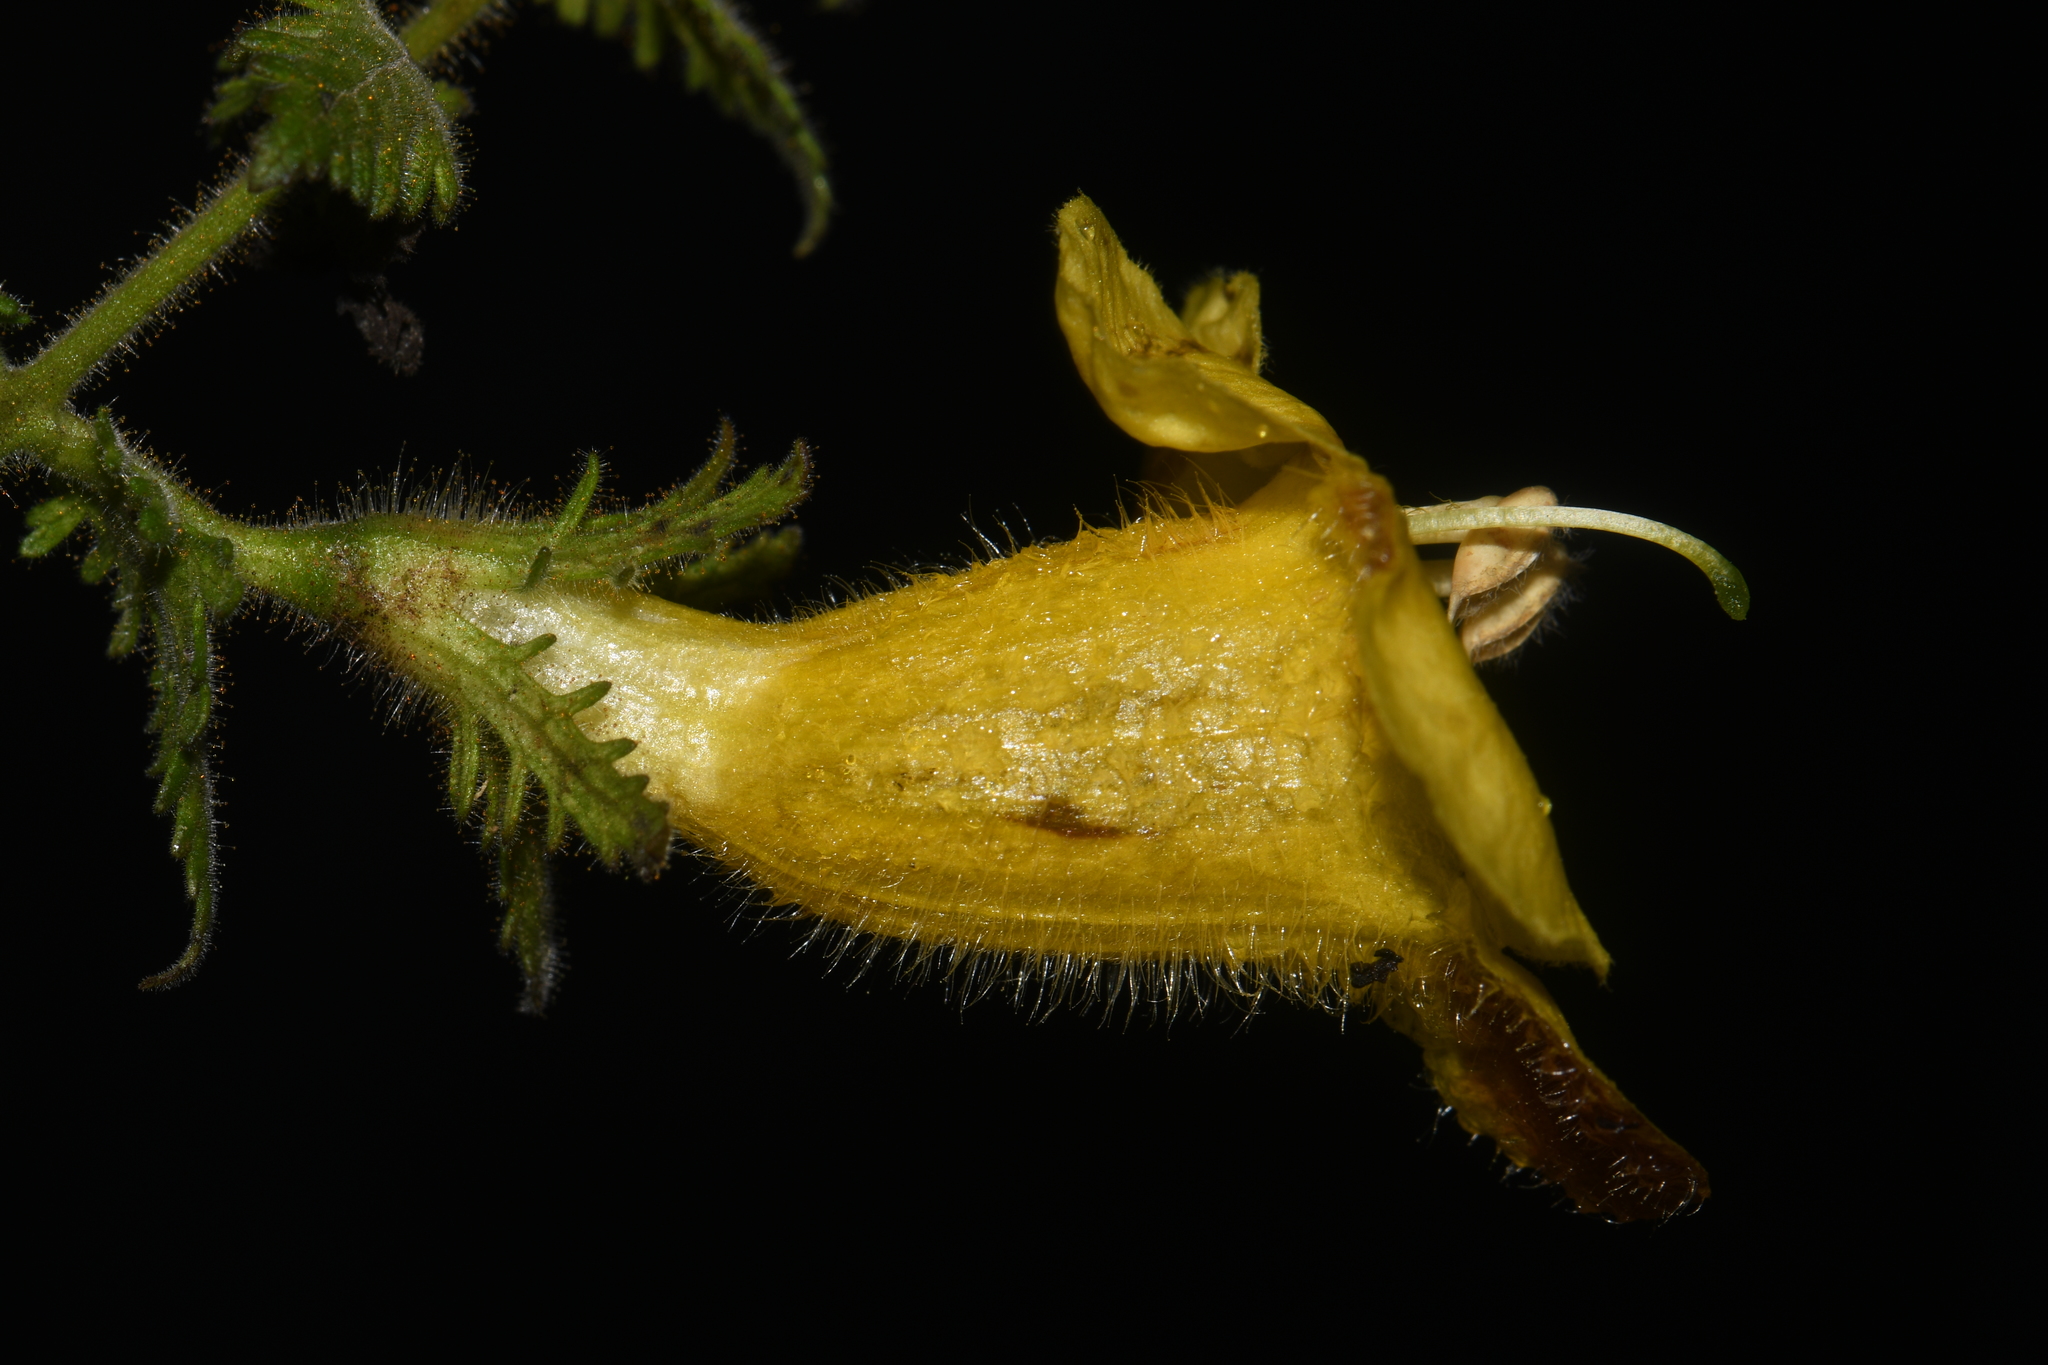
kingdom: Plantae
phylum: Tracheophyta
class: Magnoliopsida
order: Lamiales
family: Orobanchaceae
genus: Aureolaria
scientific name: Aureolaria pectinata
